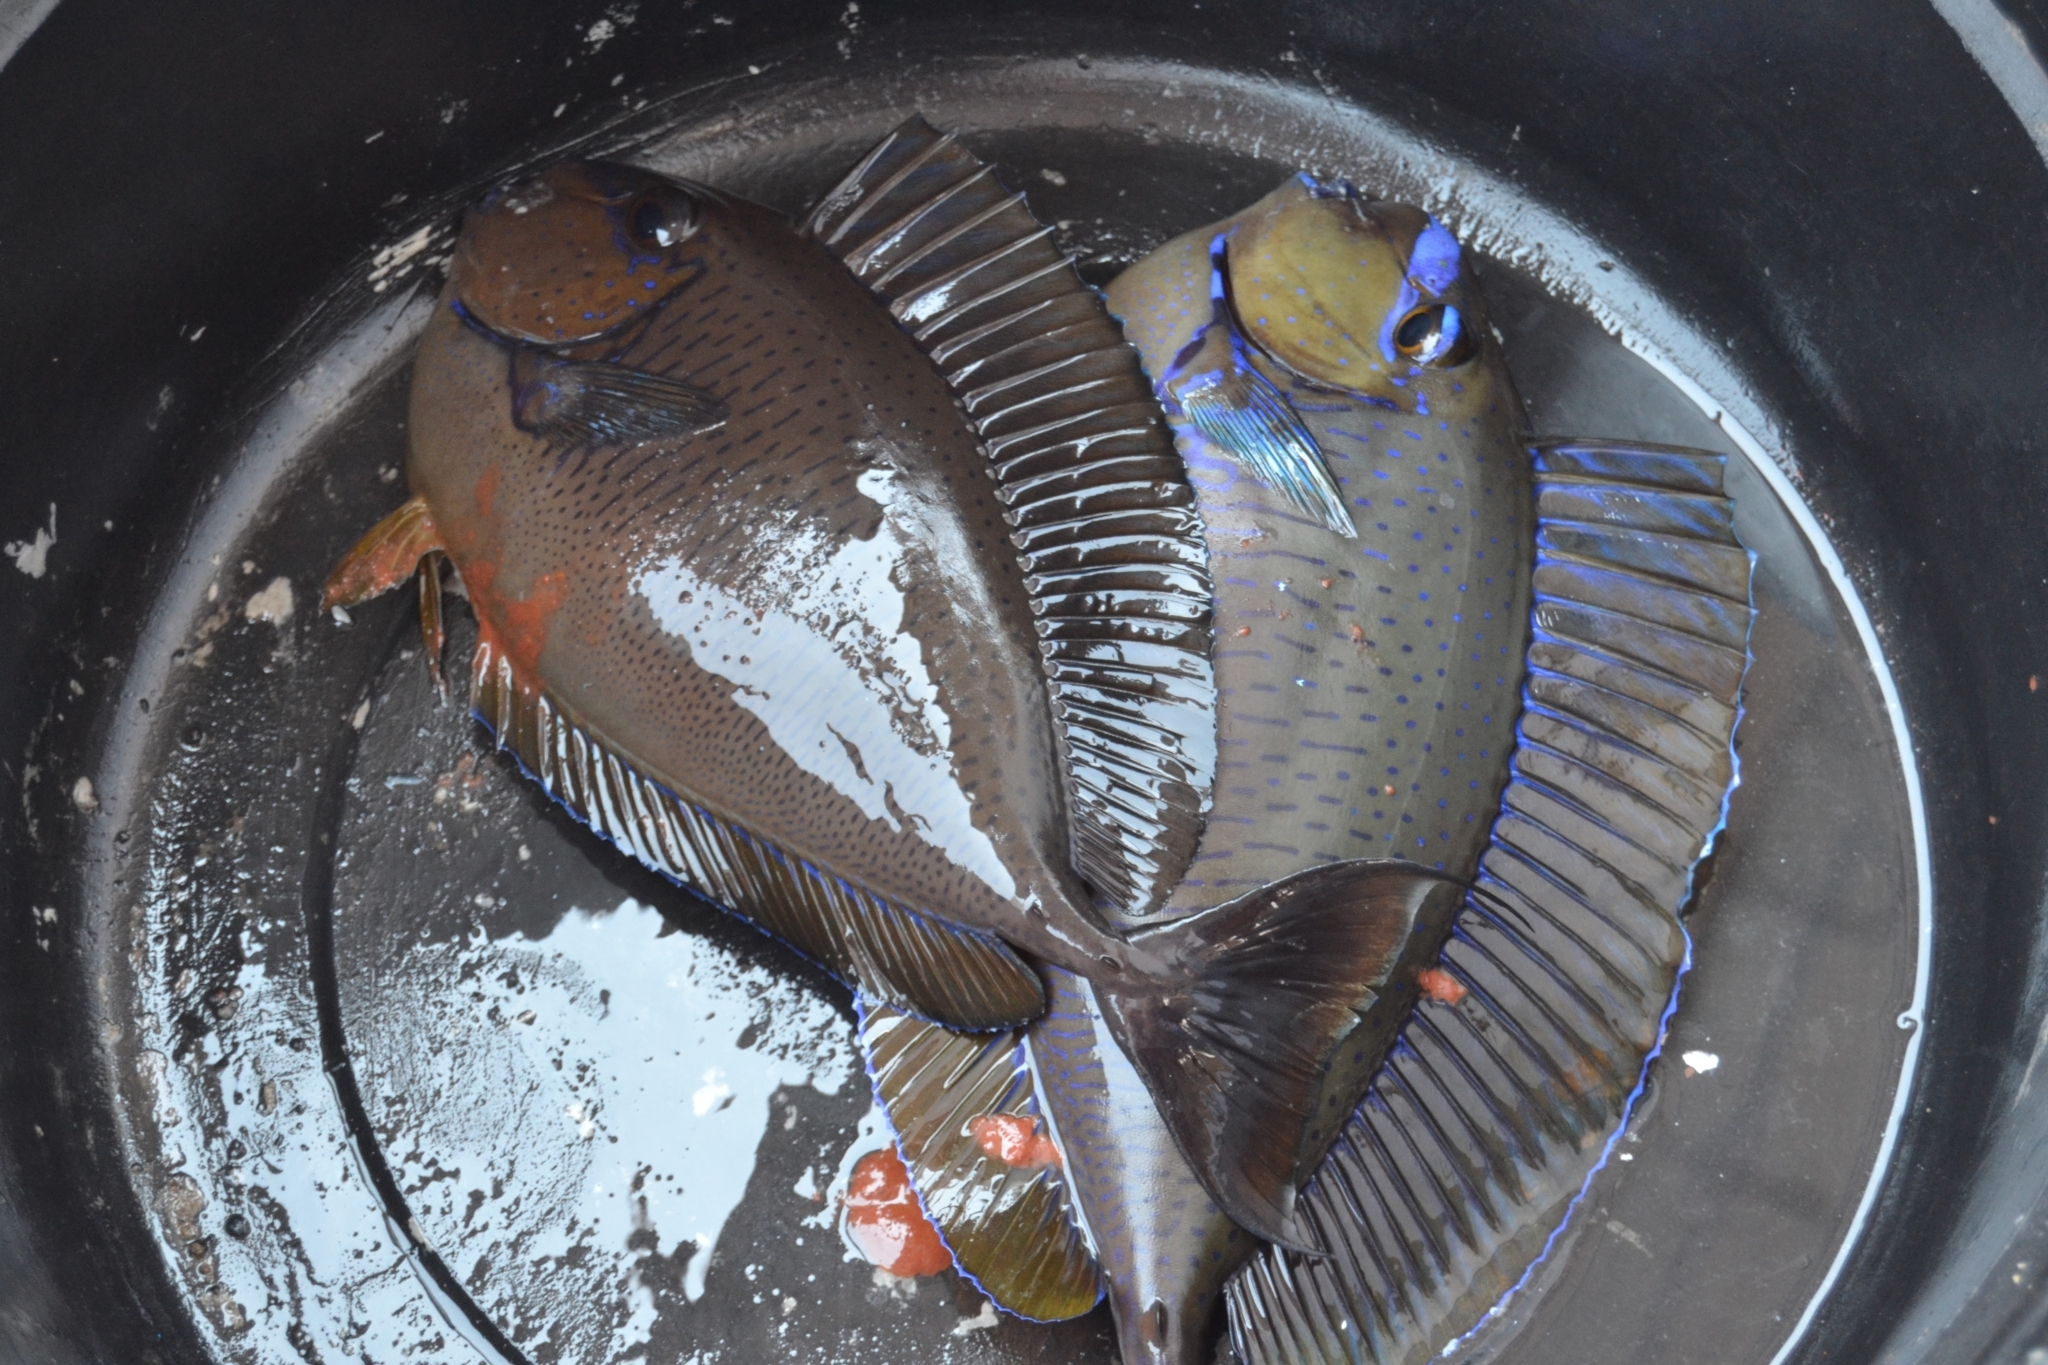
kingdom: Animalia
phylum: Chordata
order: Perciformes
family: Acanthuridae
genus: Naso
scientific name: Naso vlamingii
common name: Big-nose unicorn
